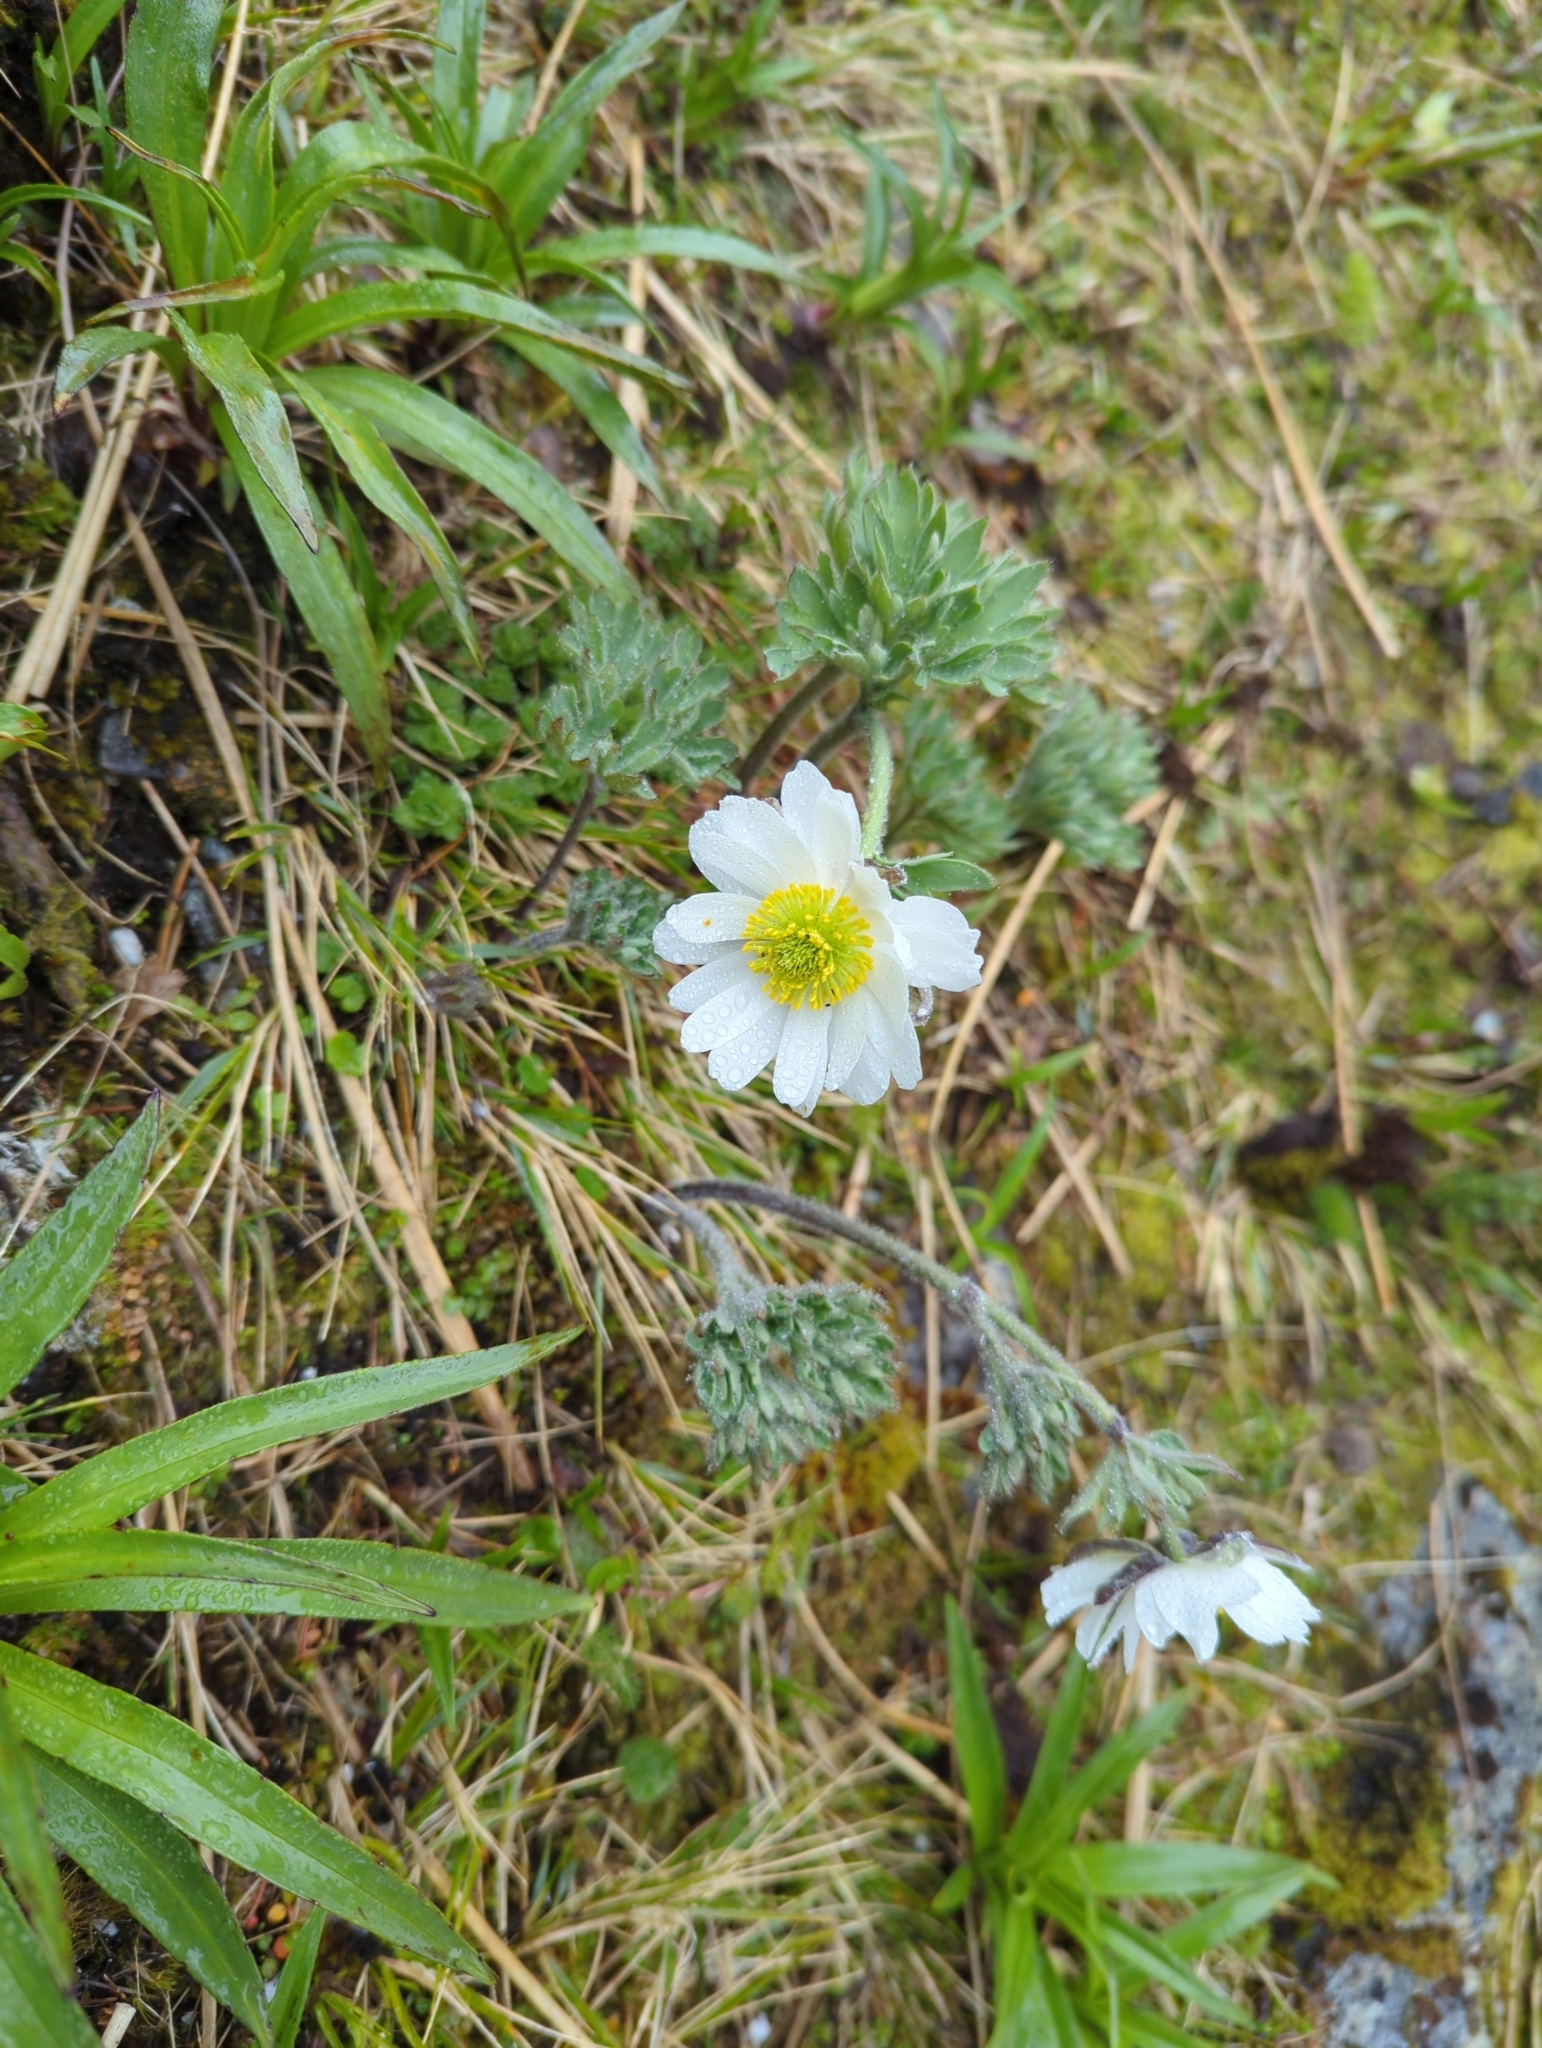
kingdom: Plantae
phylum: Tracheophyta
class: Magnoliopsida
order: Ranunculales
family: Ranunculaceae
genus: Ranunculus
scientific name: Ranunculus buchananii
